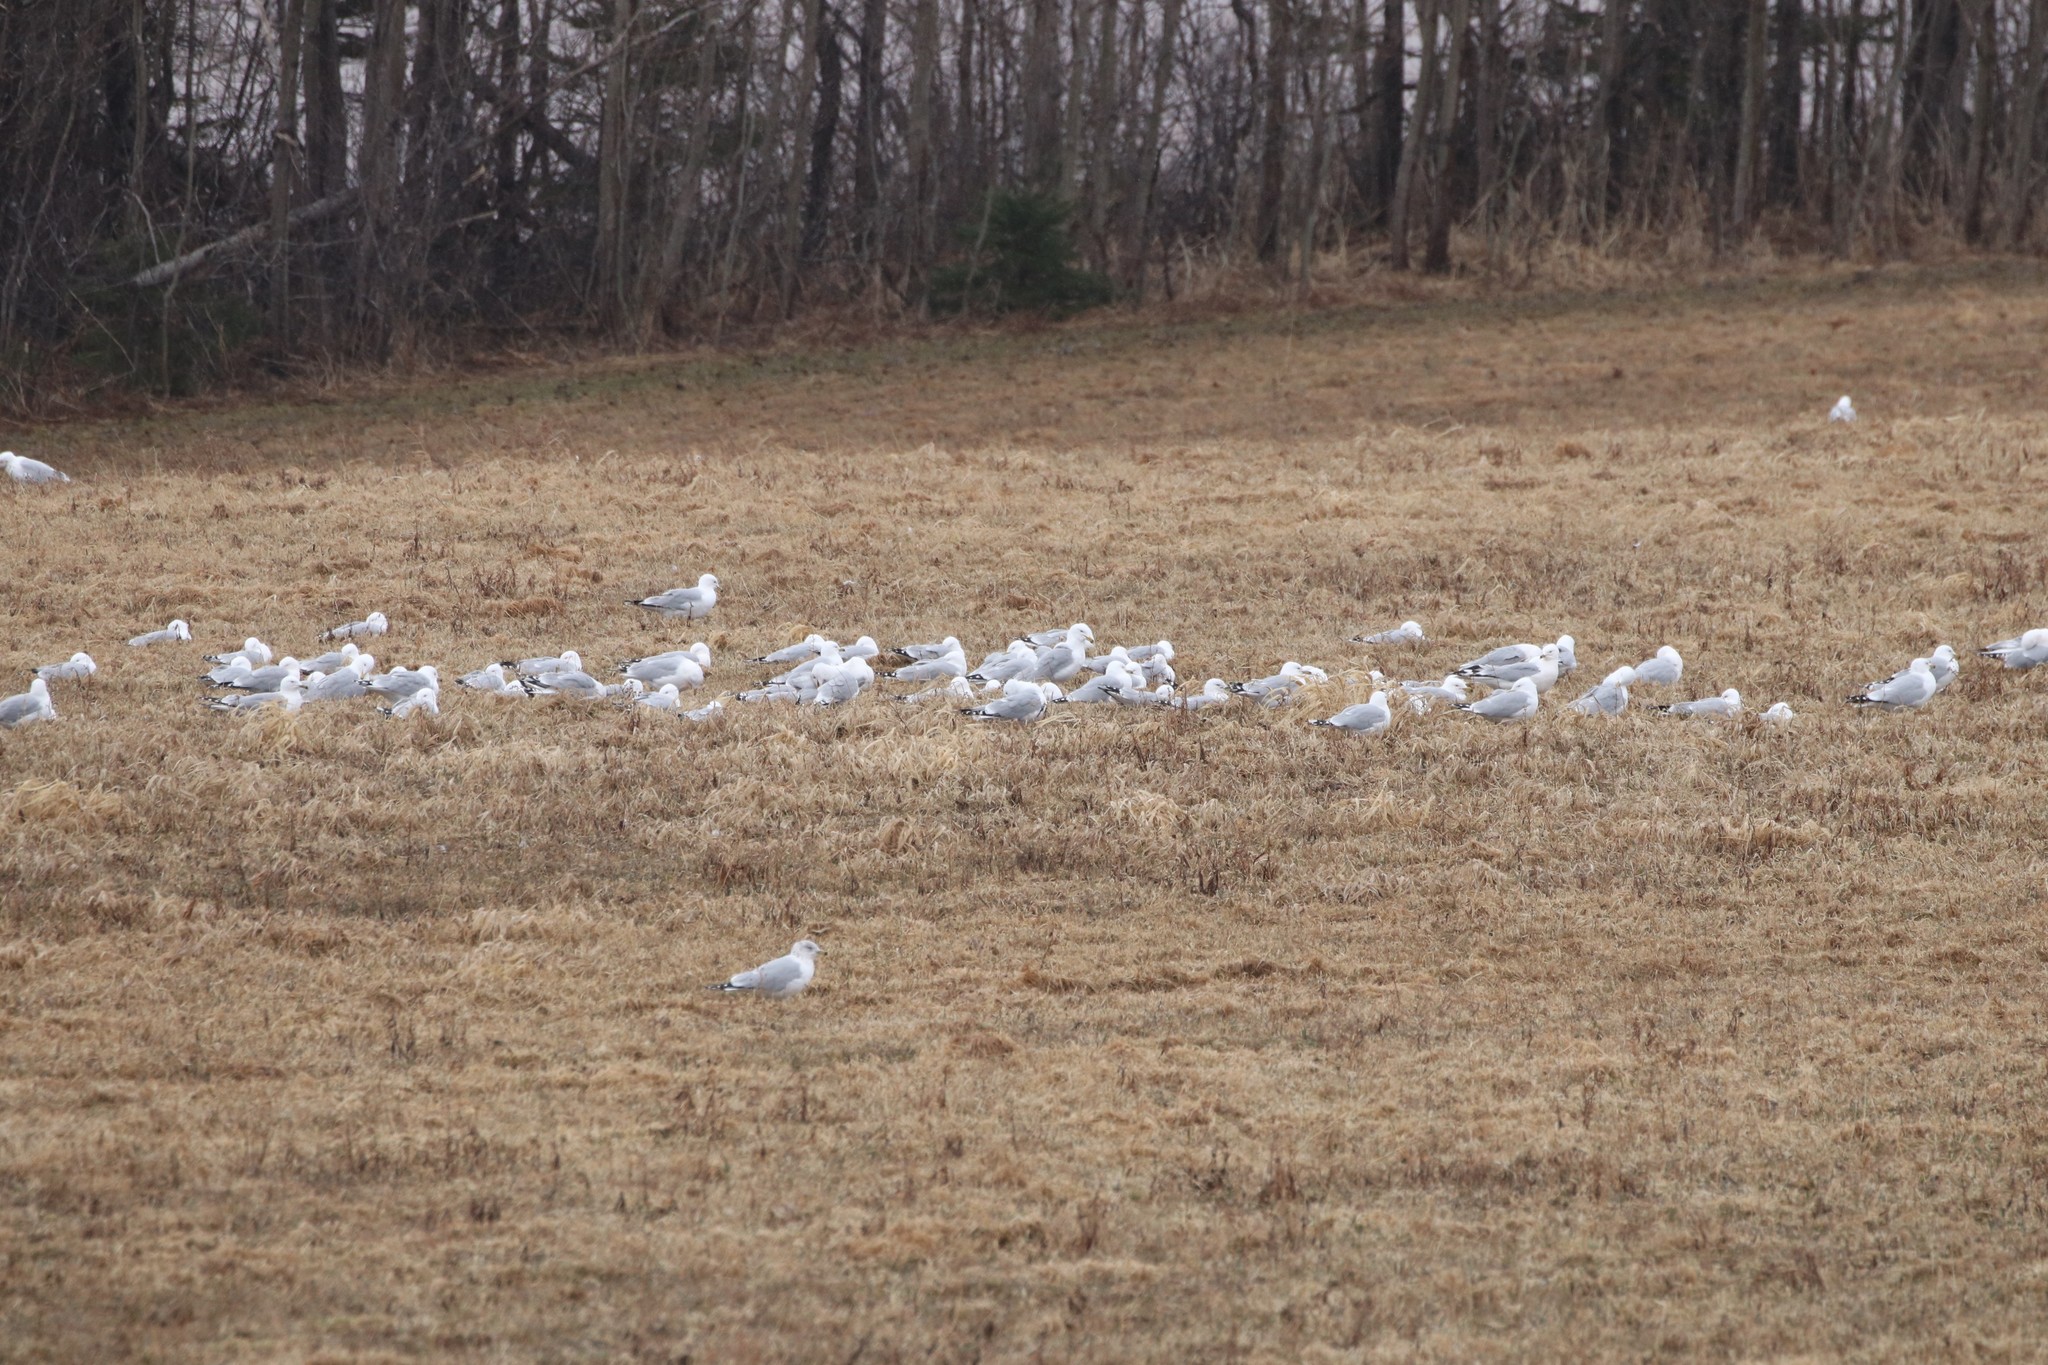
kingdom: Animalia
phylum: Chordata
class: Aves
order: Charadriiformes
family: Laridae
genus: Larus
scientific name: Larus delawarensis
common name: Ring-billed gull
